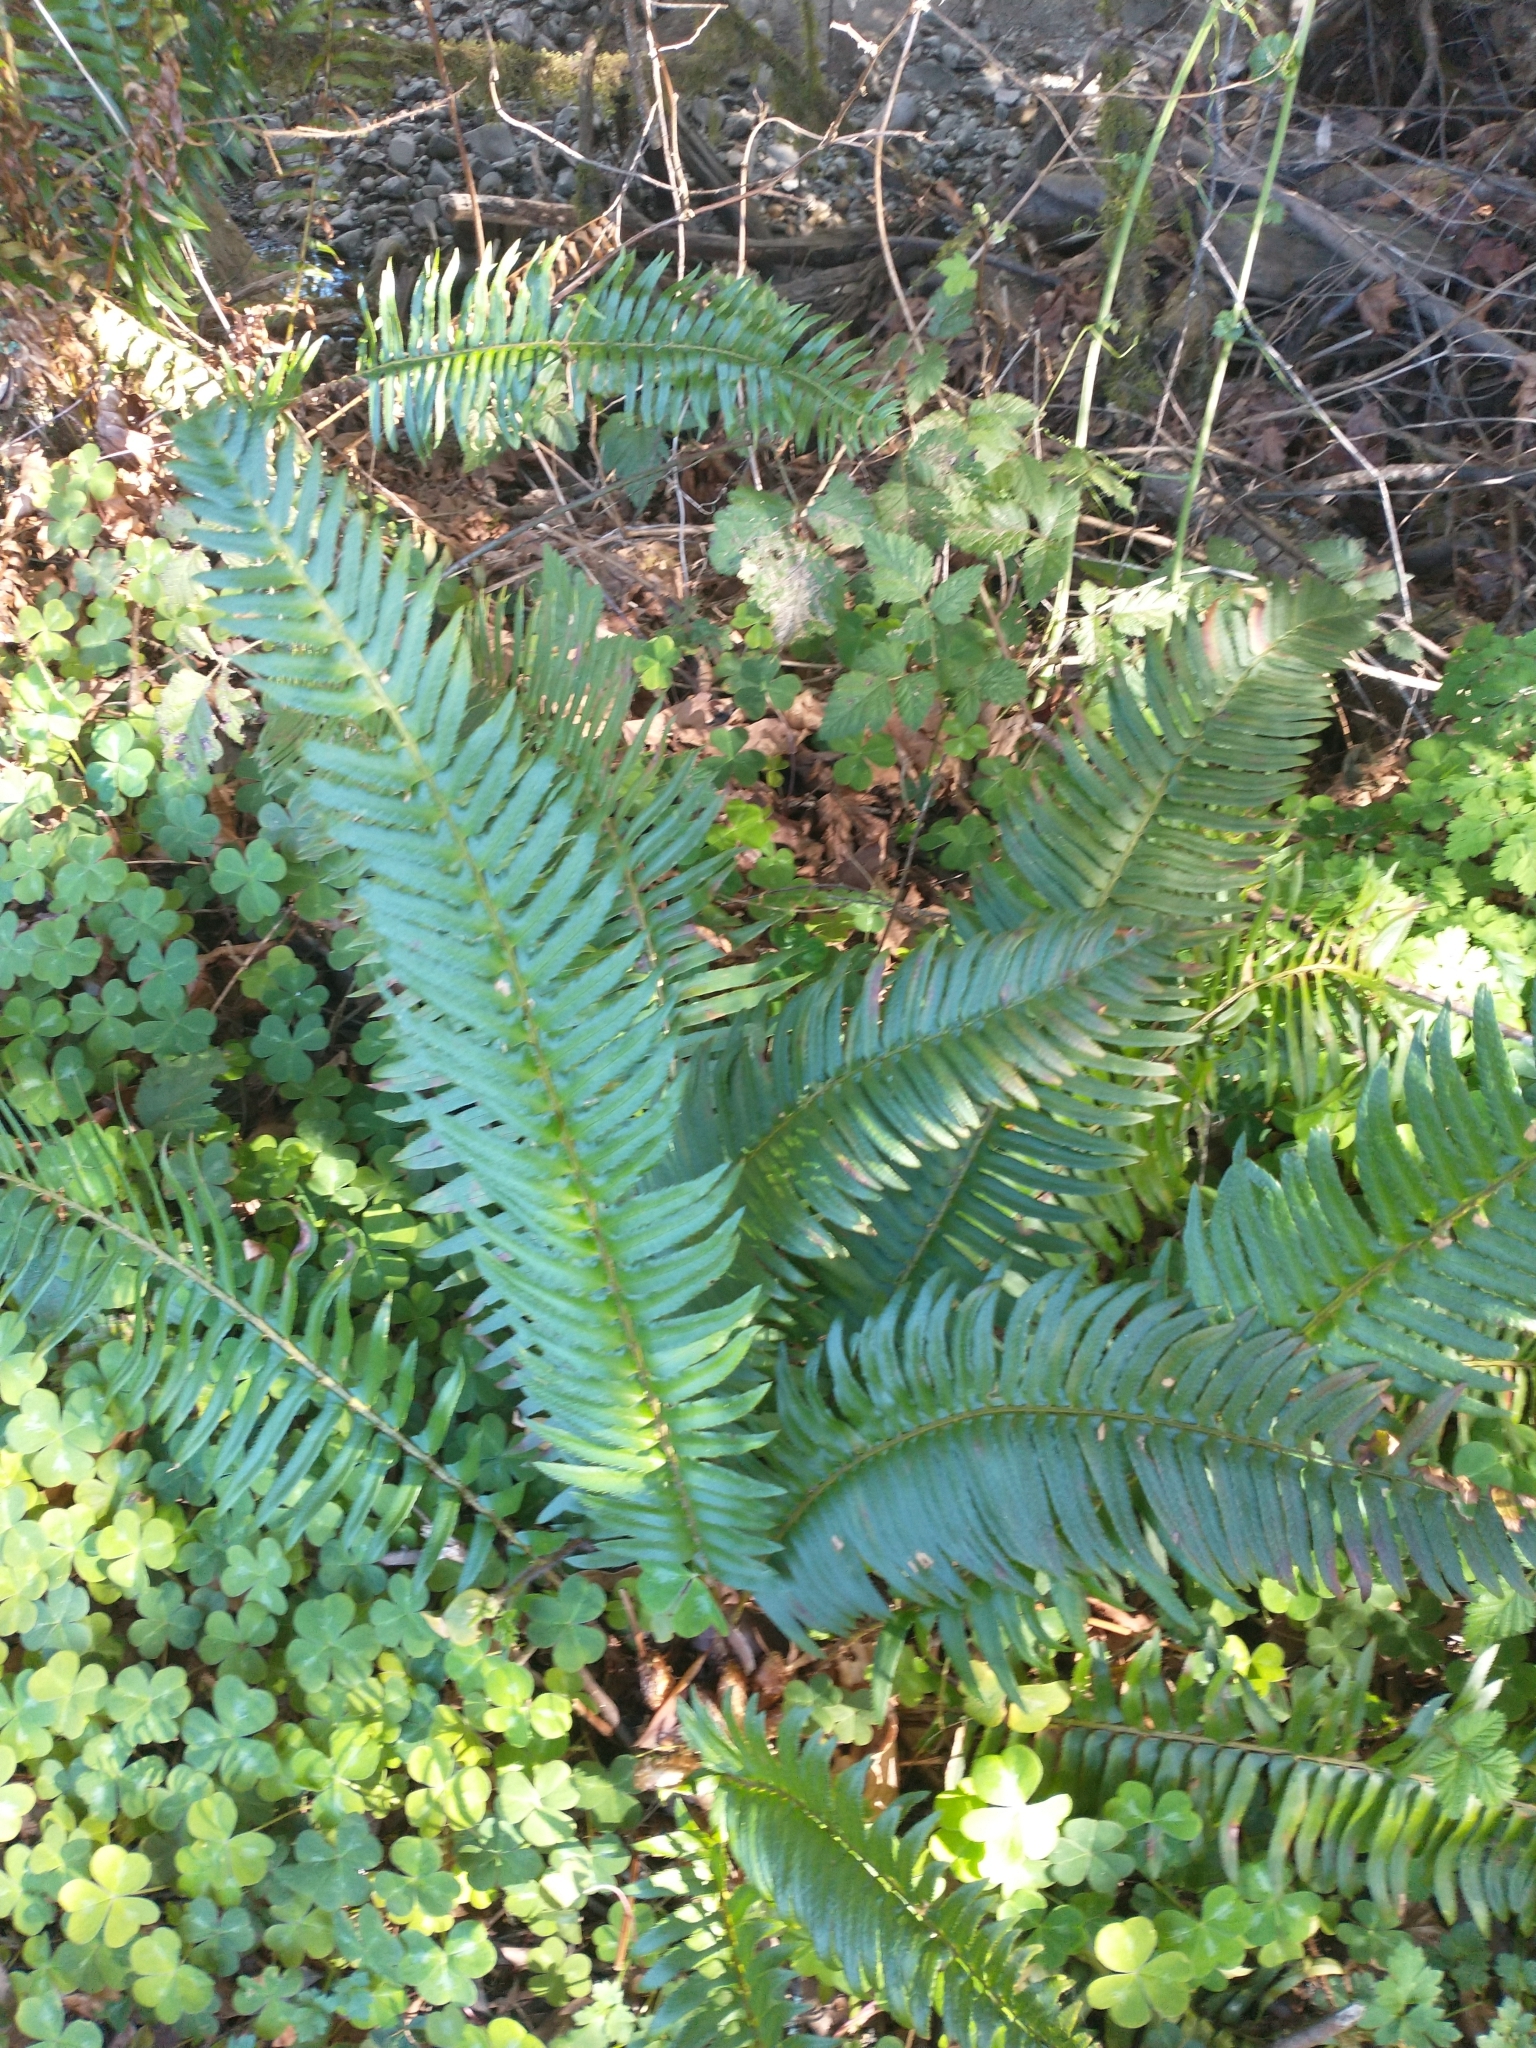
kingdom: Plantae
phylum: Tracheophyta
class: Polypodiopsida
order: Polypodiales
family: Dryopteridaceae
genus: Polystichum
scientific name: Polystichum munitum
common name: Western sword-fern
